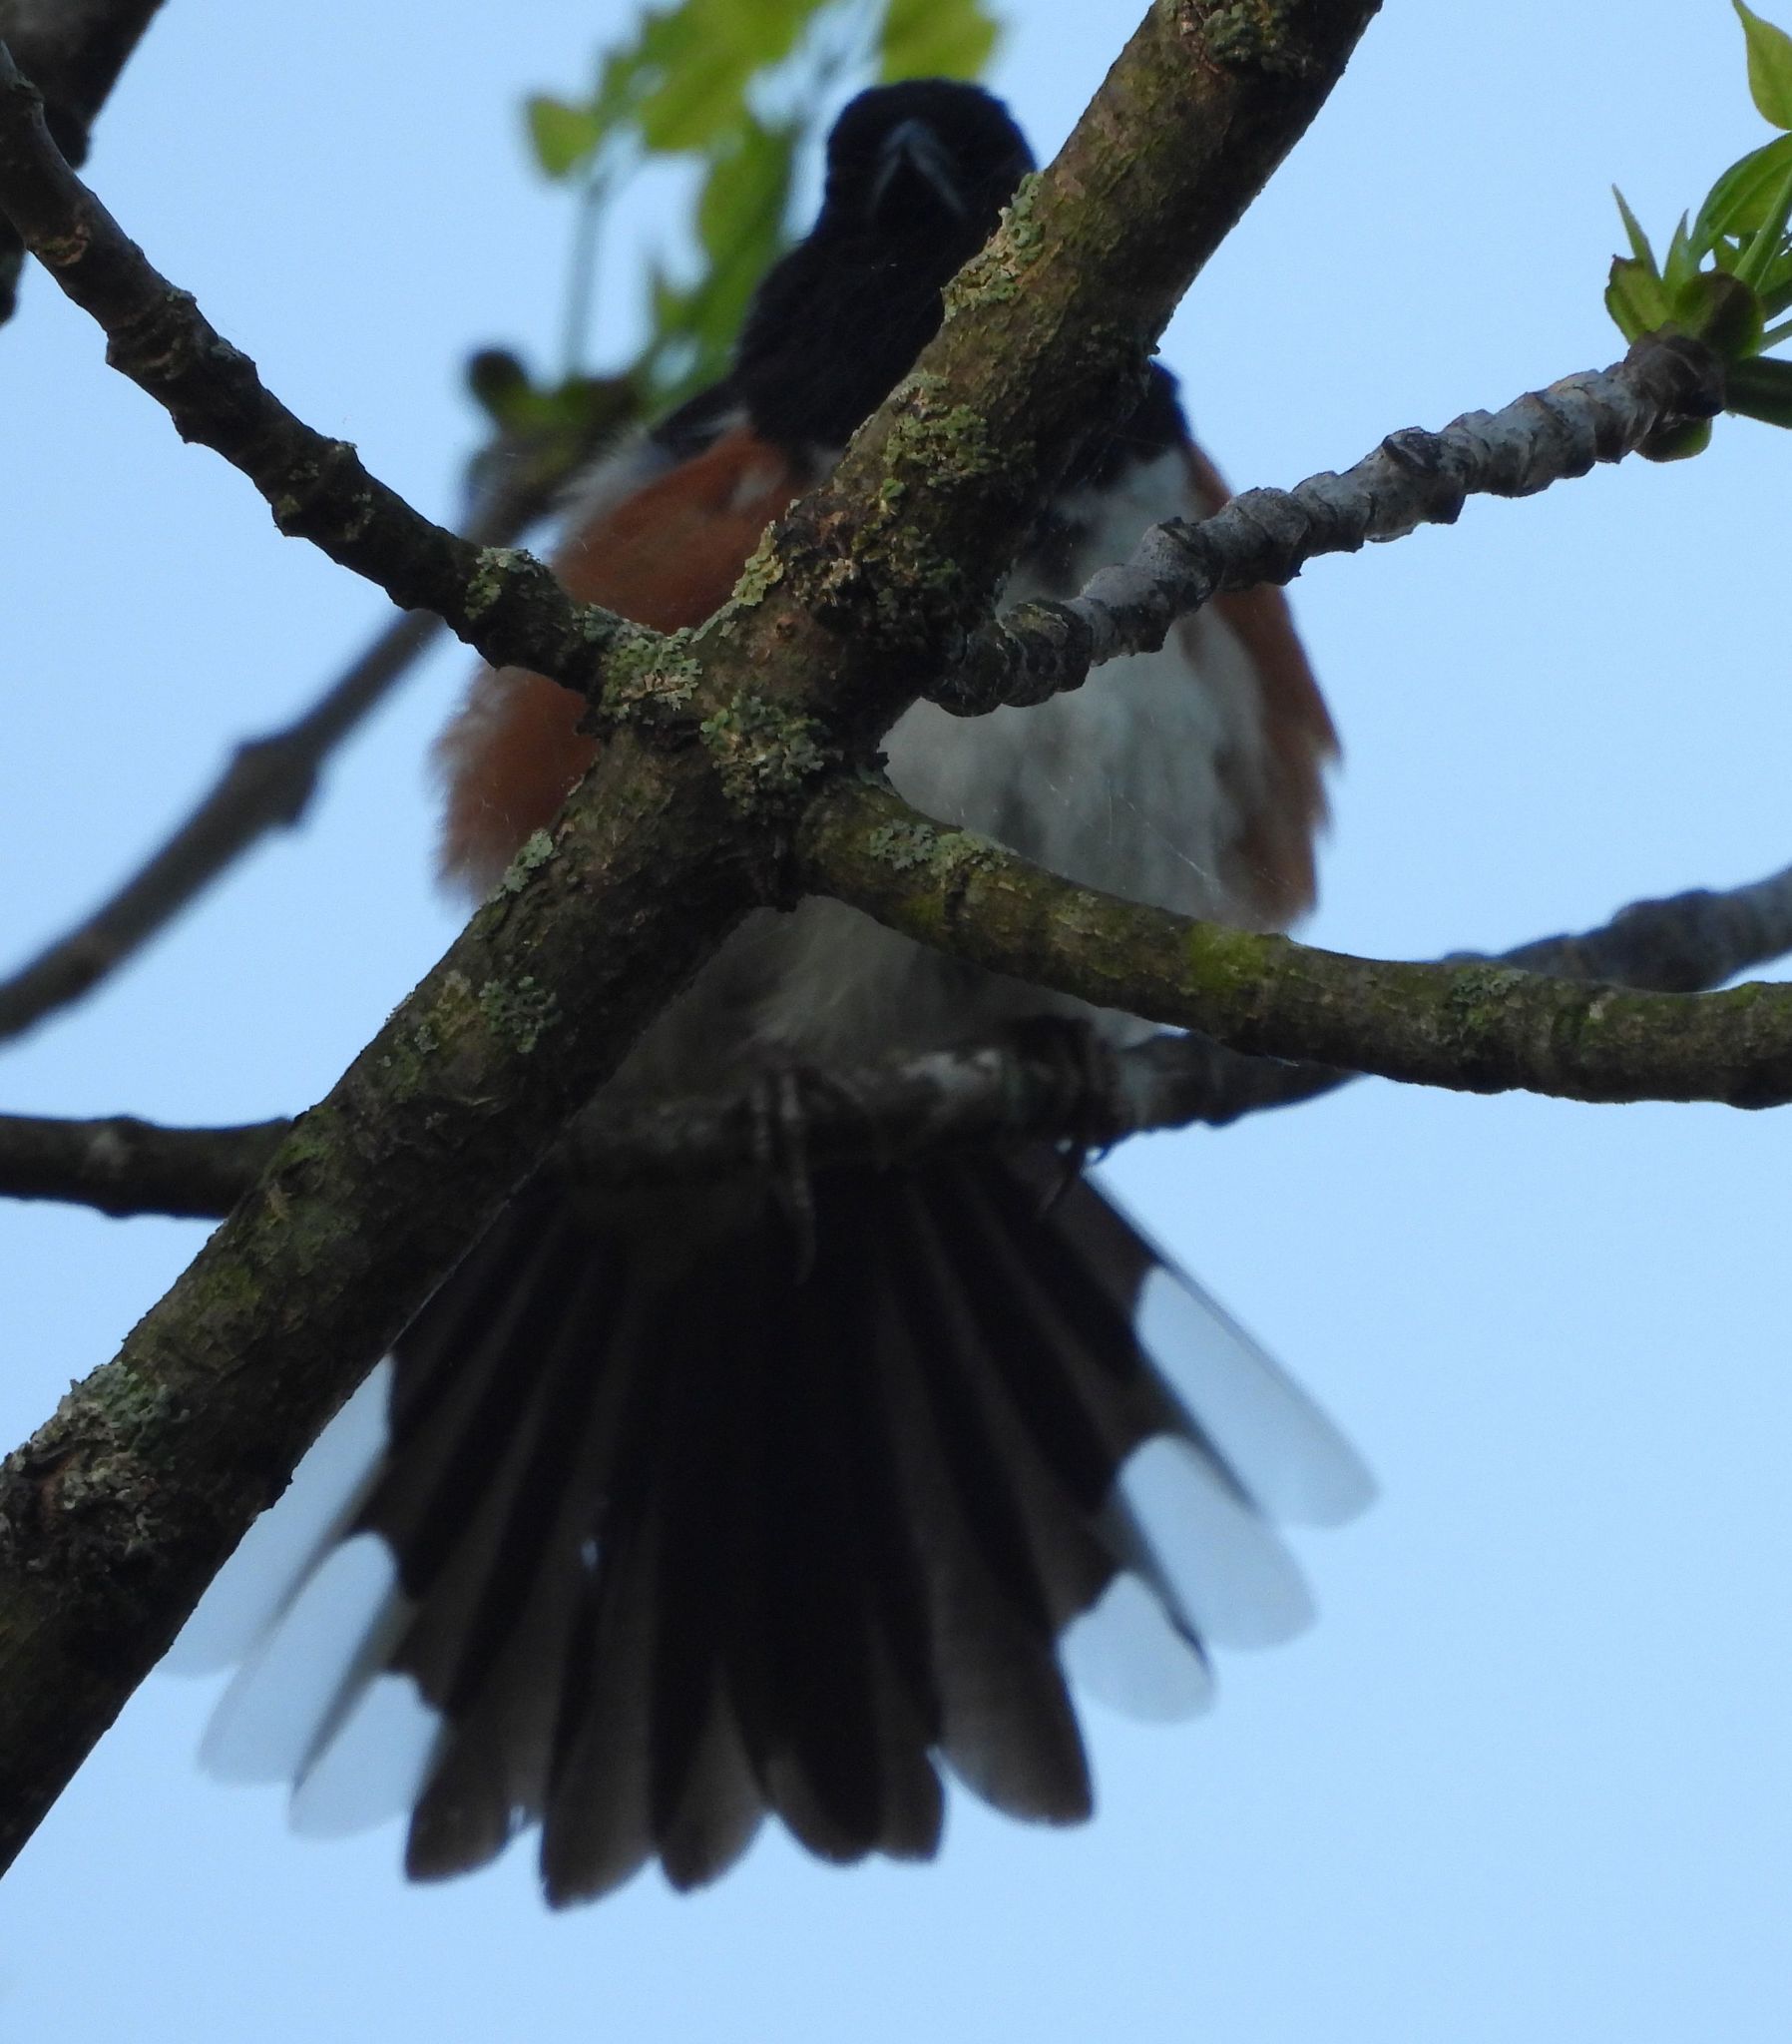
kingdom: Animalia
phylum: Chordata
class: Aves
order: Passeriformes
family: Passerellidae
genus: Pipilo
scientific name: Pipilo erythrophthalmus
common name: Eastern towhee
